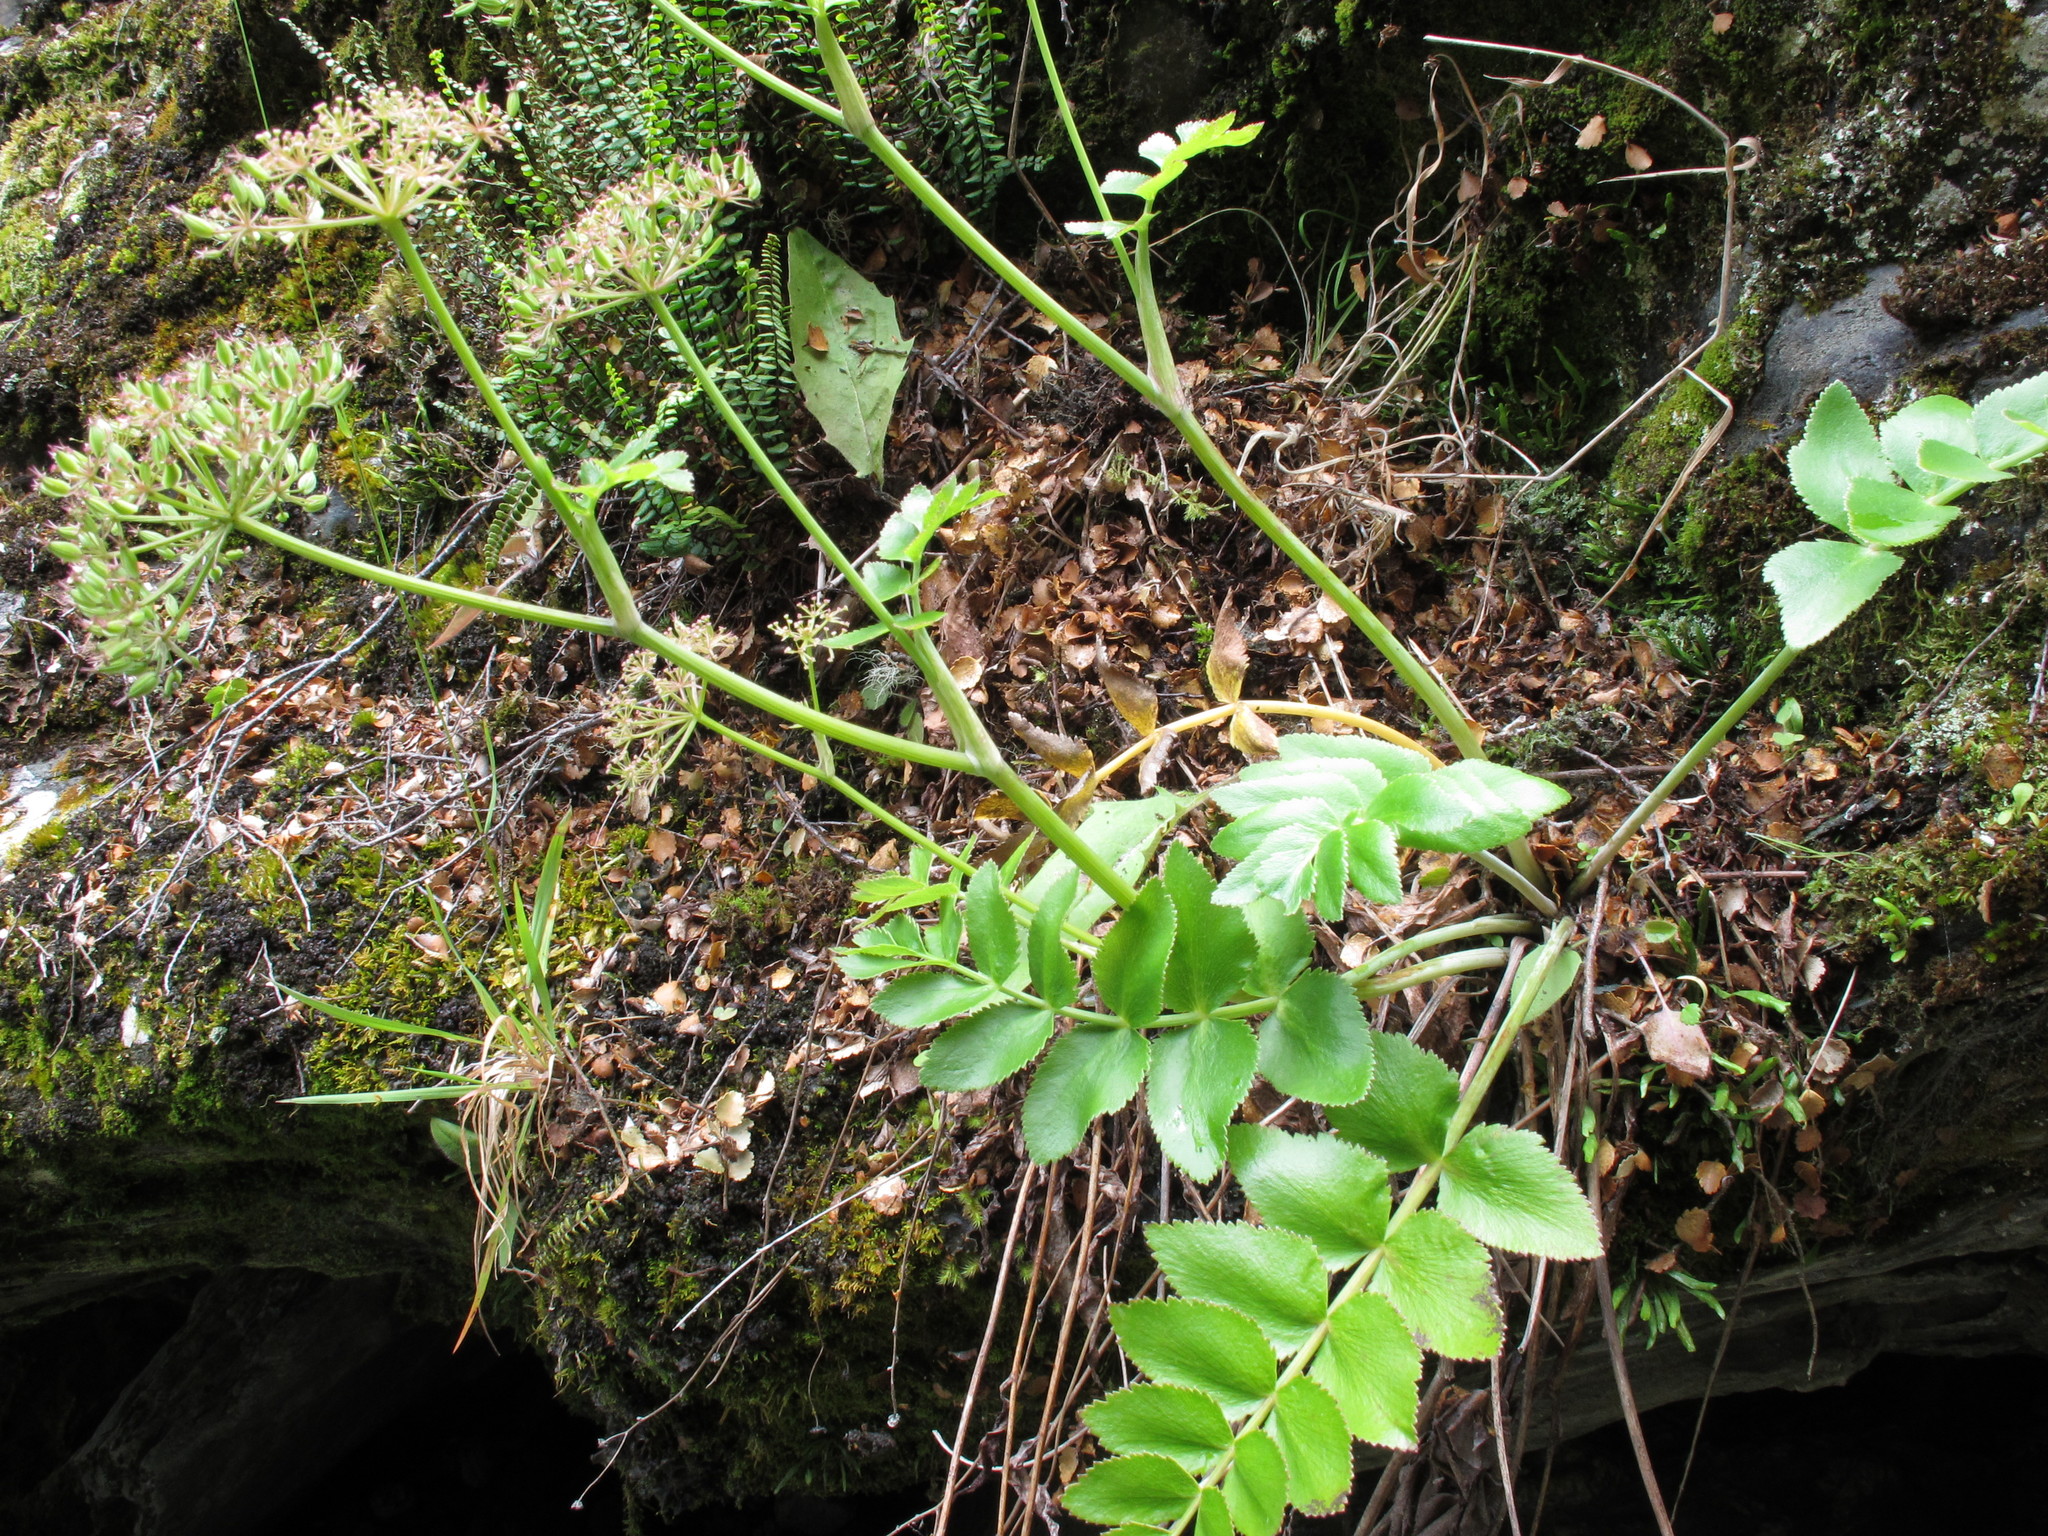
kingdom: Plantae
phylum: Tracheophyta
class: Magnoliopsida
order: Apiales
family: Apiaceae
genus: Gingidia
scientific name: Gingidia montana
